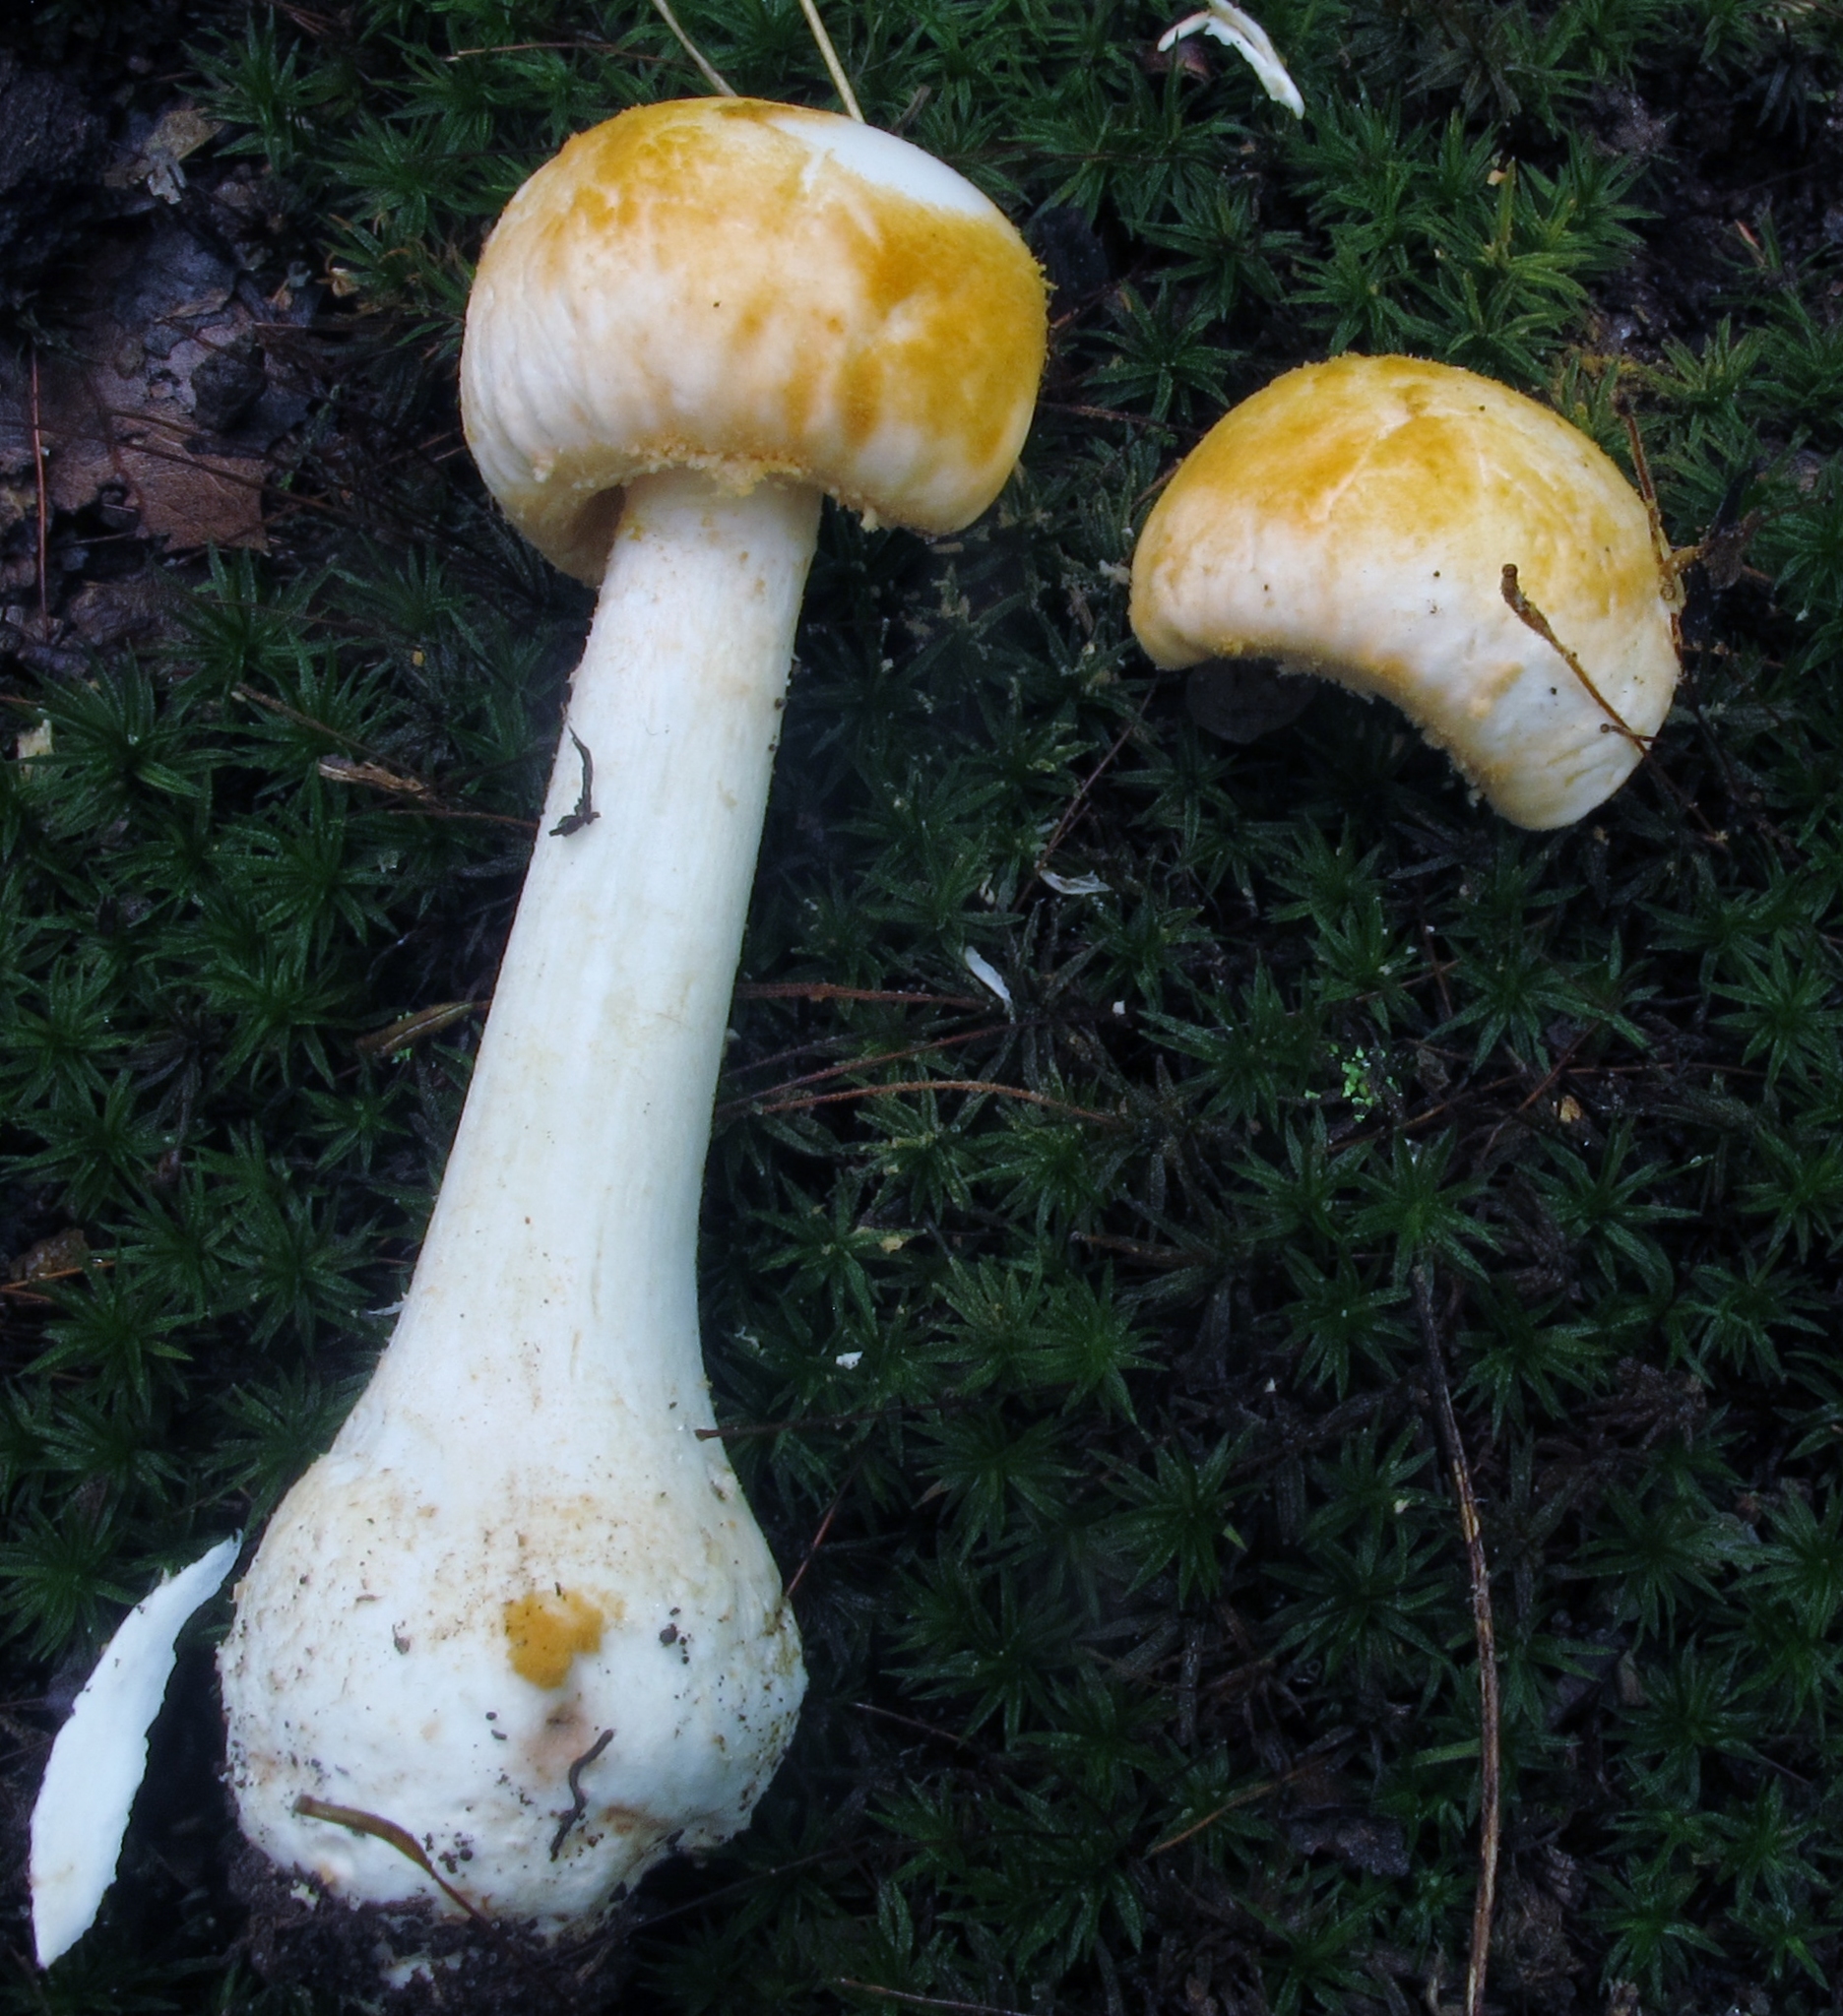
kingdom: Fungi
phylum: Basidiomycota
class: Agaricomycetes
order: Agaricales
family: Amanitaceae
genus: Amanita
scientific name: Amanita roseotincta
